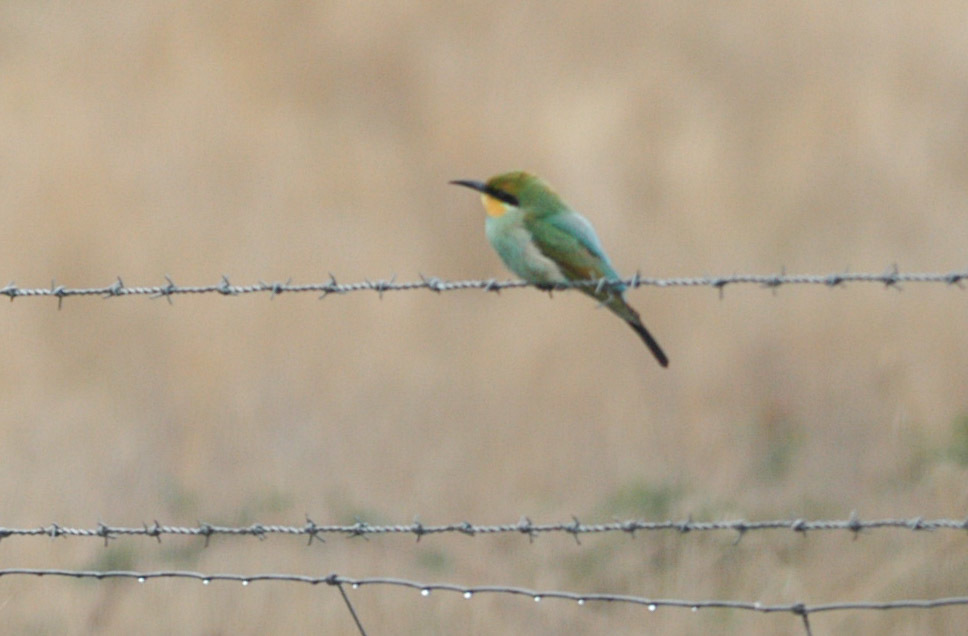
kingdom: Animalia
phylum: Chordata
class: Aves
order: Coraciiformes
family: Meropidae
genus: Merops
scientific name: Merops ornatus
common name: Rainbow bee-eater
